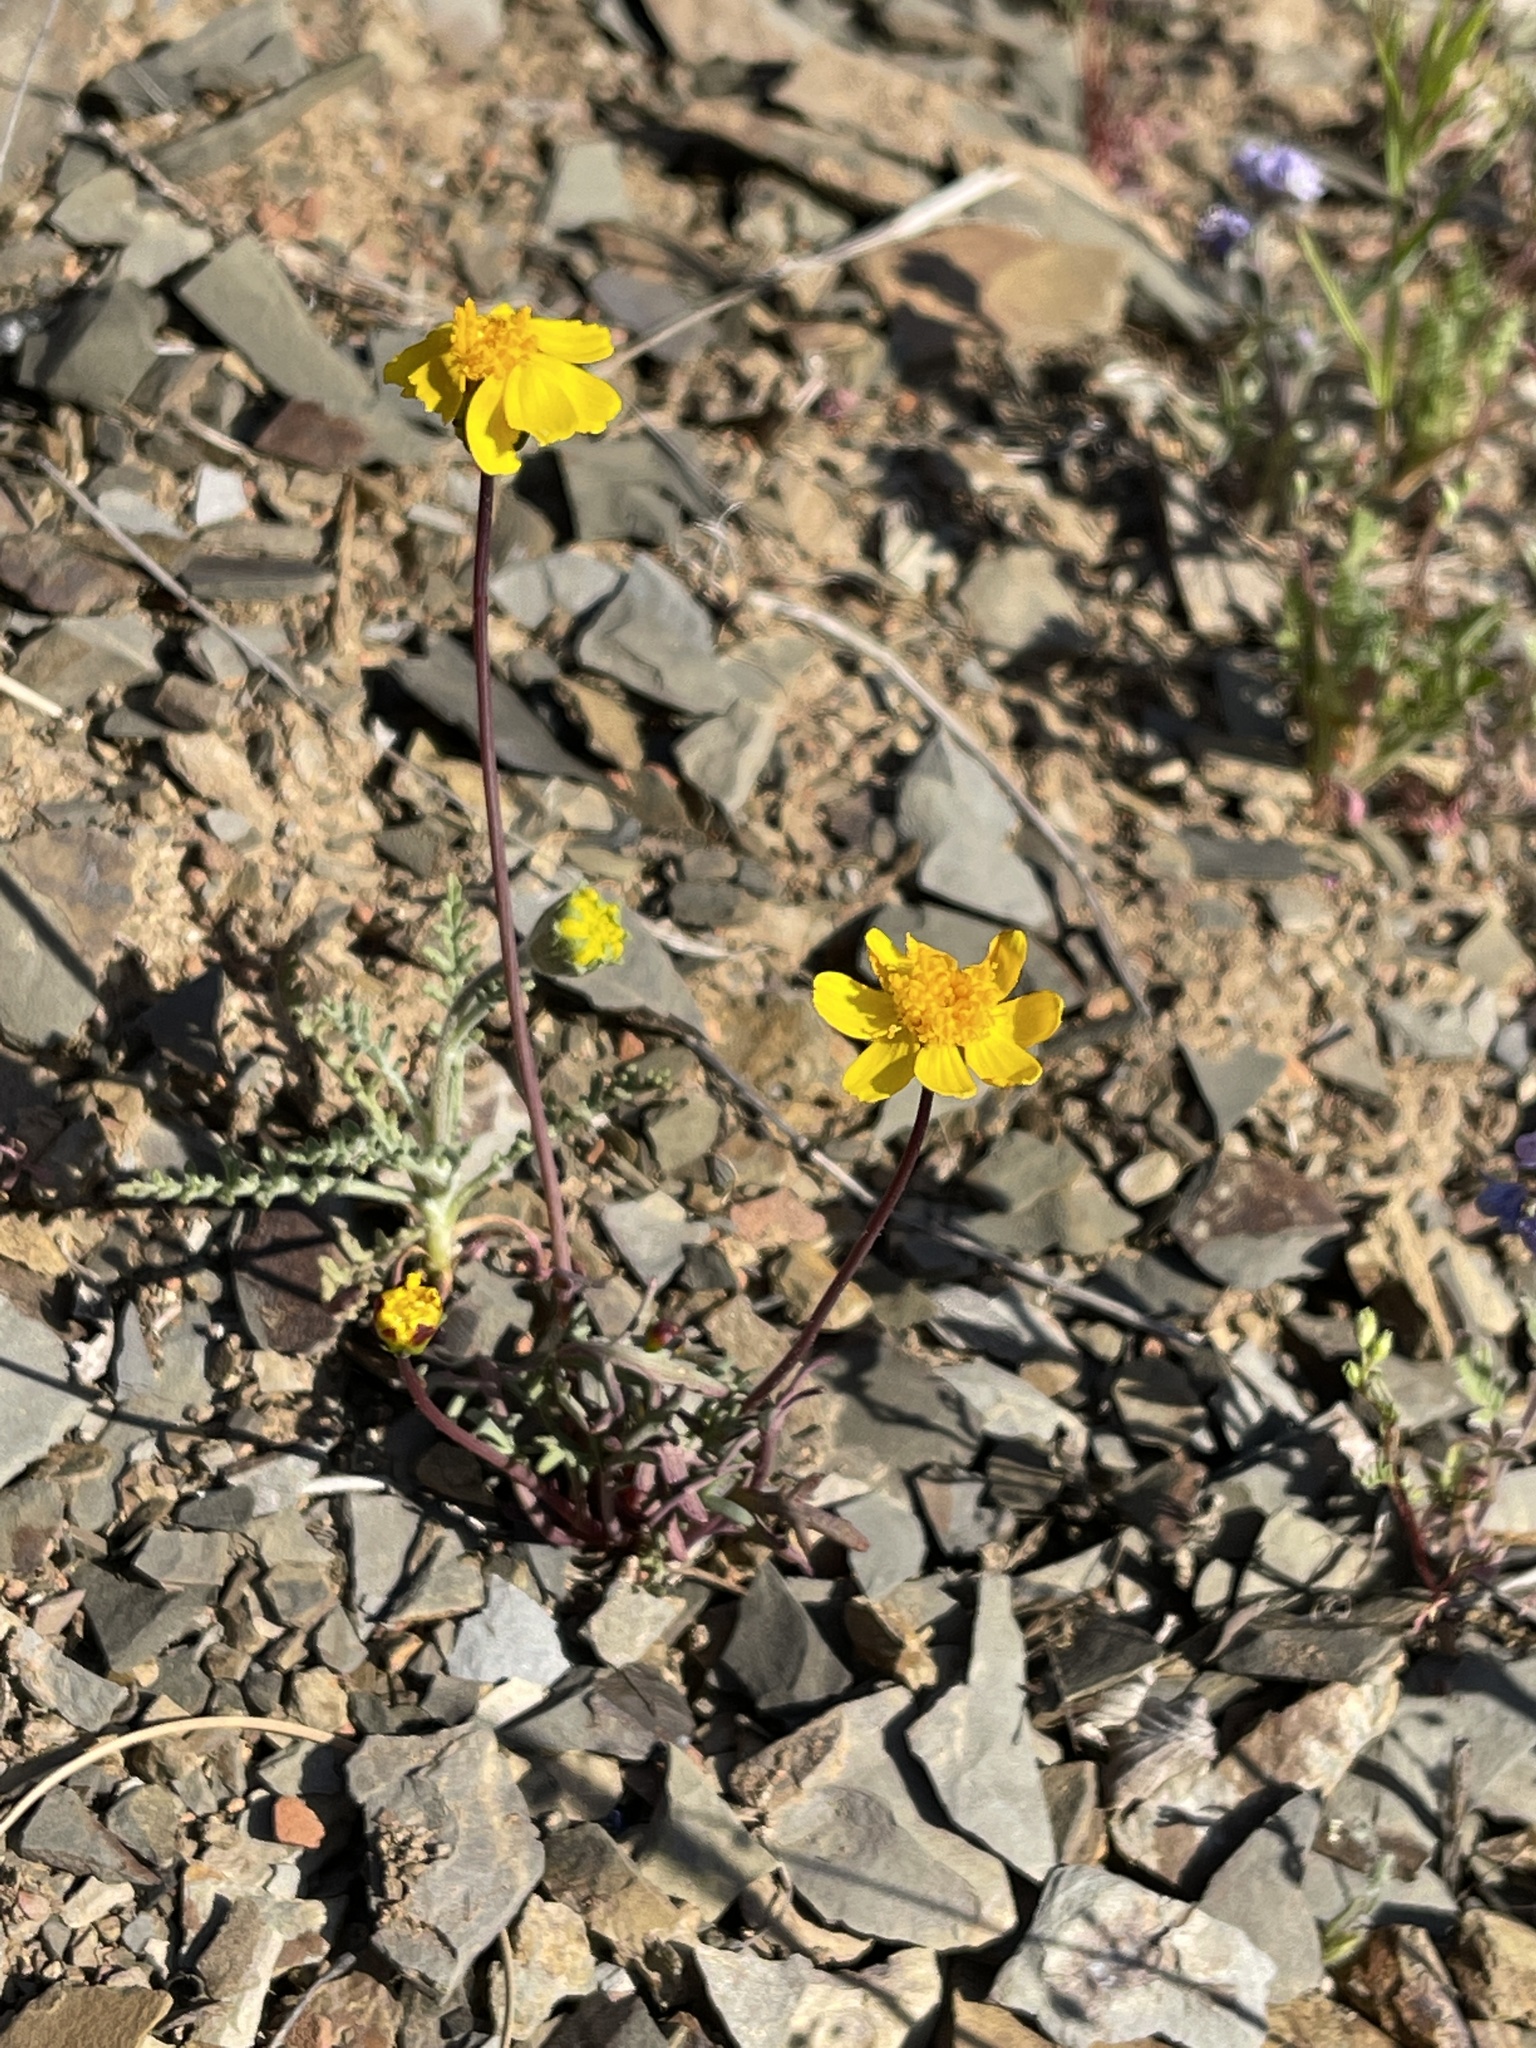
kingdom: Plantae
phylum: Tracheophyta
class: Magnoliopsida
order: Asterales
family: Asteraceae
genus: Coreopsis
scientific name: Coreopsis hamiltonii
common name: Mount hamilton coreopsis
